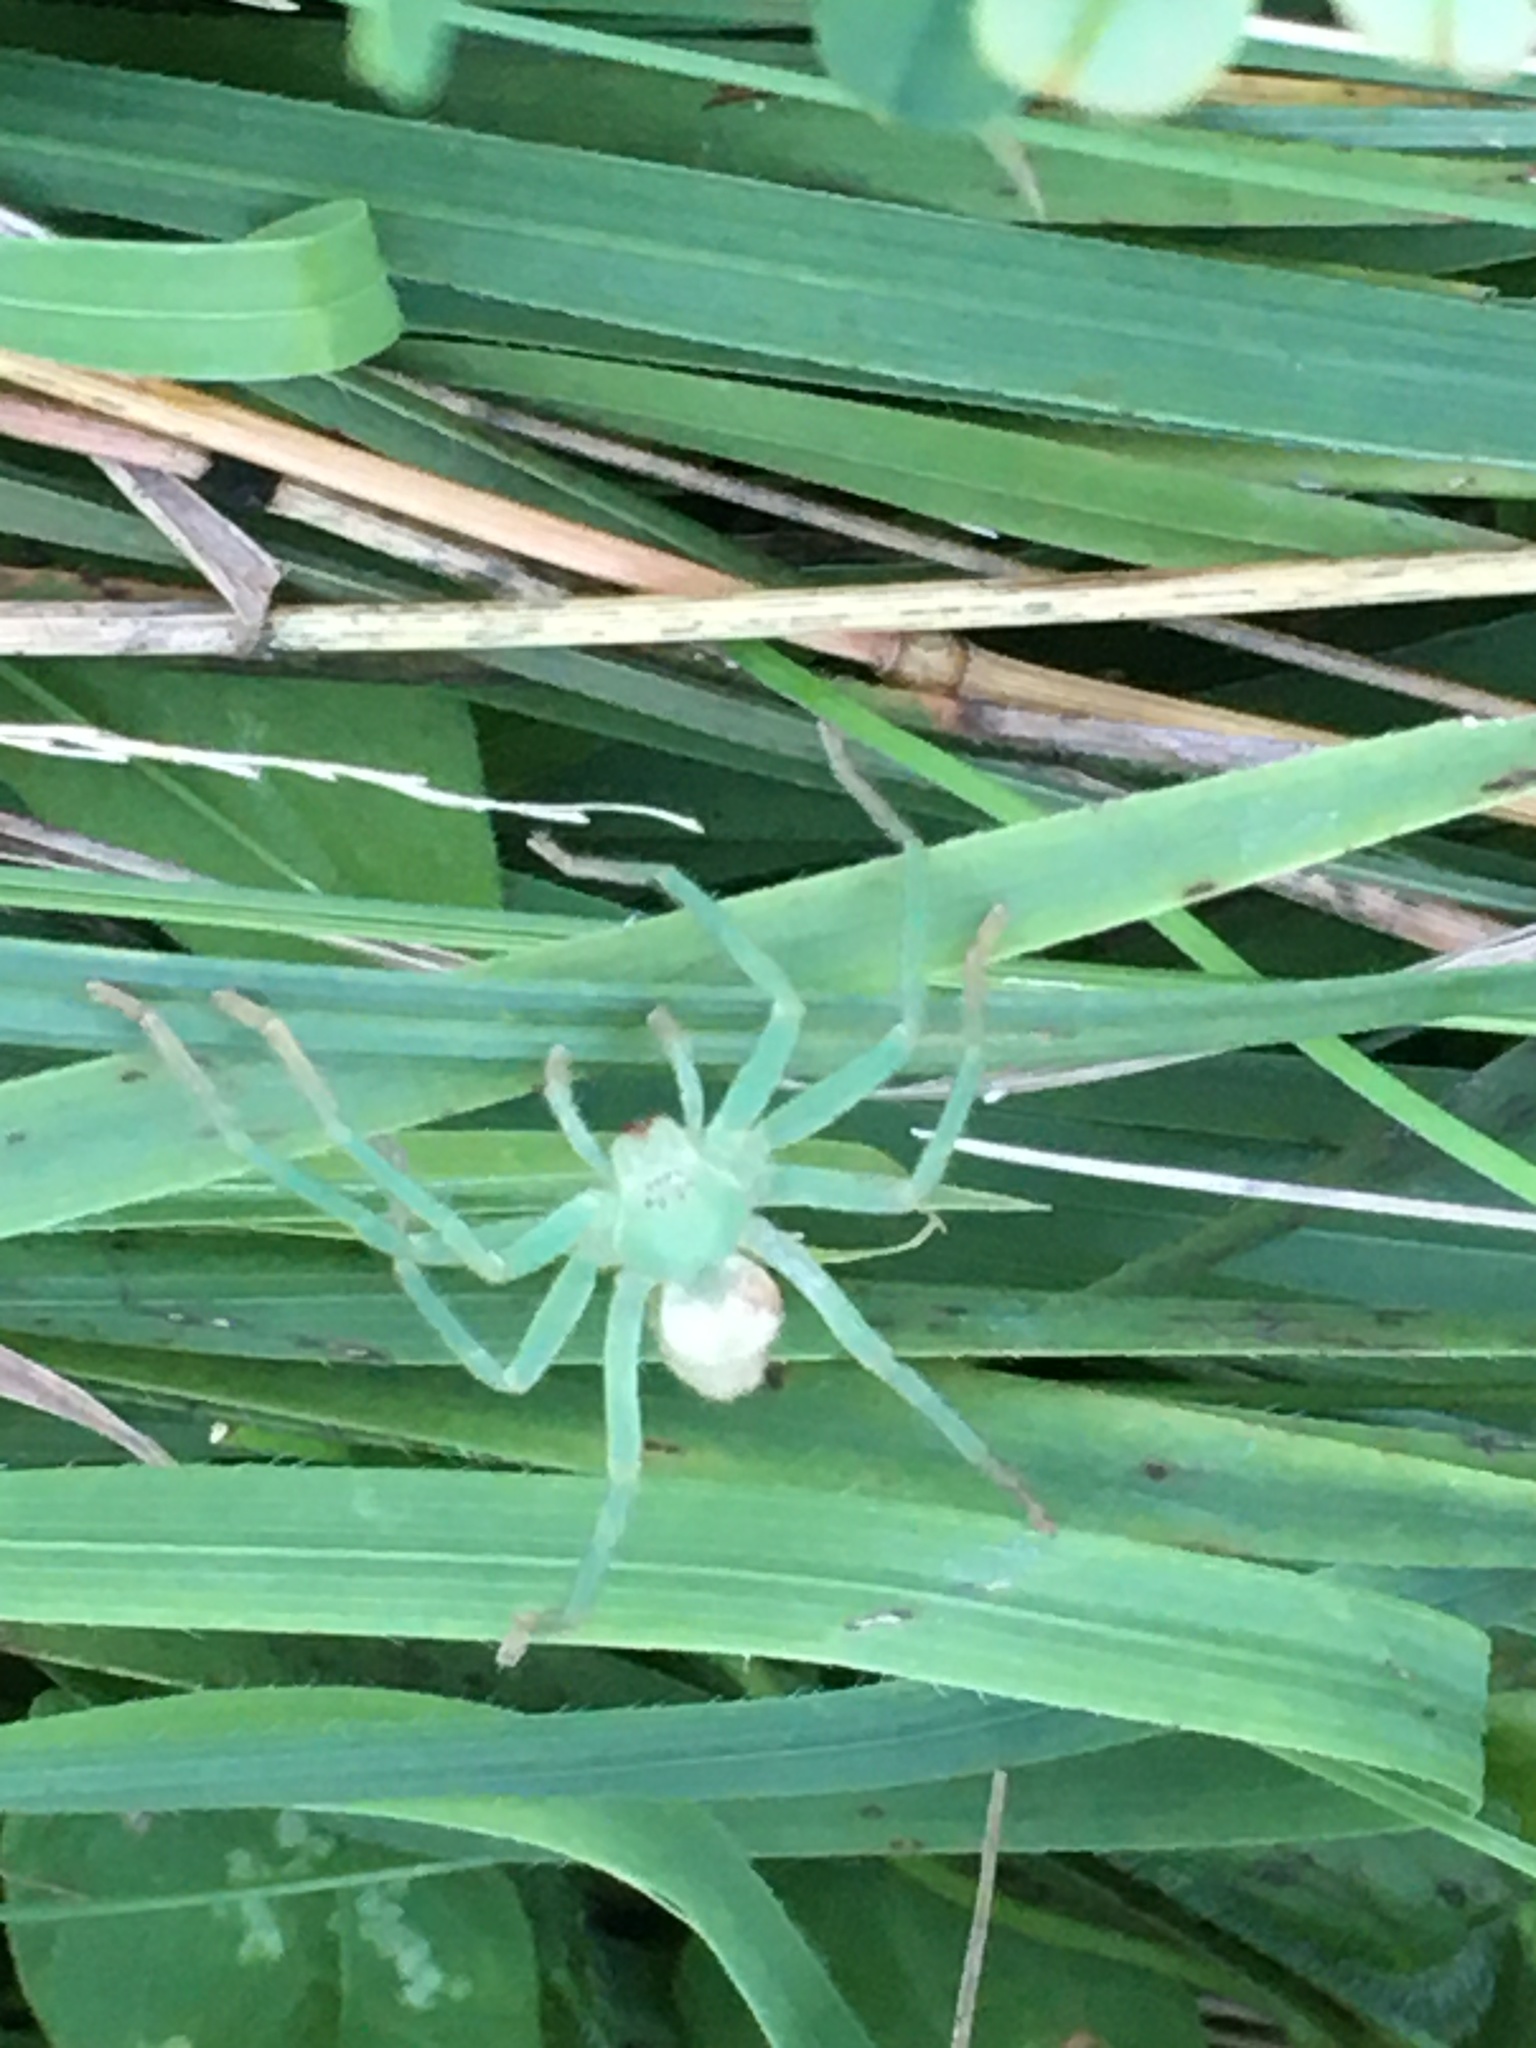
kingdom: Animalia
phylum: Arthropoda
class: Arachnida
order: Araneae
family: Sparassidae
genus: Micrommata
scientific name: Micrommata virescens
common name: Green spider
